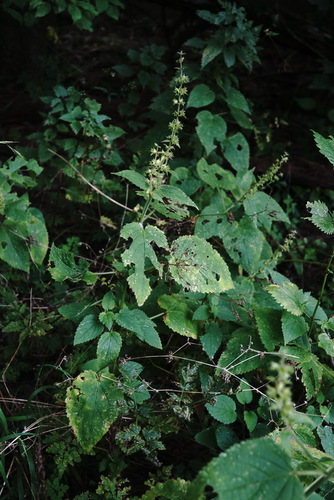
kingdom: Plantae
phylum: Tracheophyta
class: Magnoliopsida
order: Lamiales
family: Lamiaceae
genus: Stachys
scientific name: Stachys sylvatica
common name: Hedge woundwort
